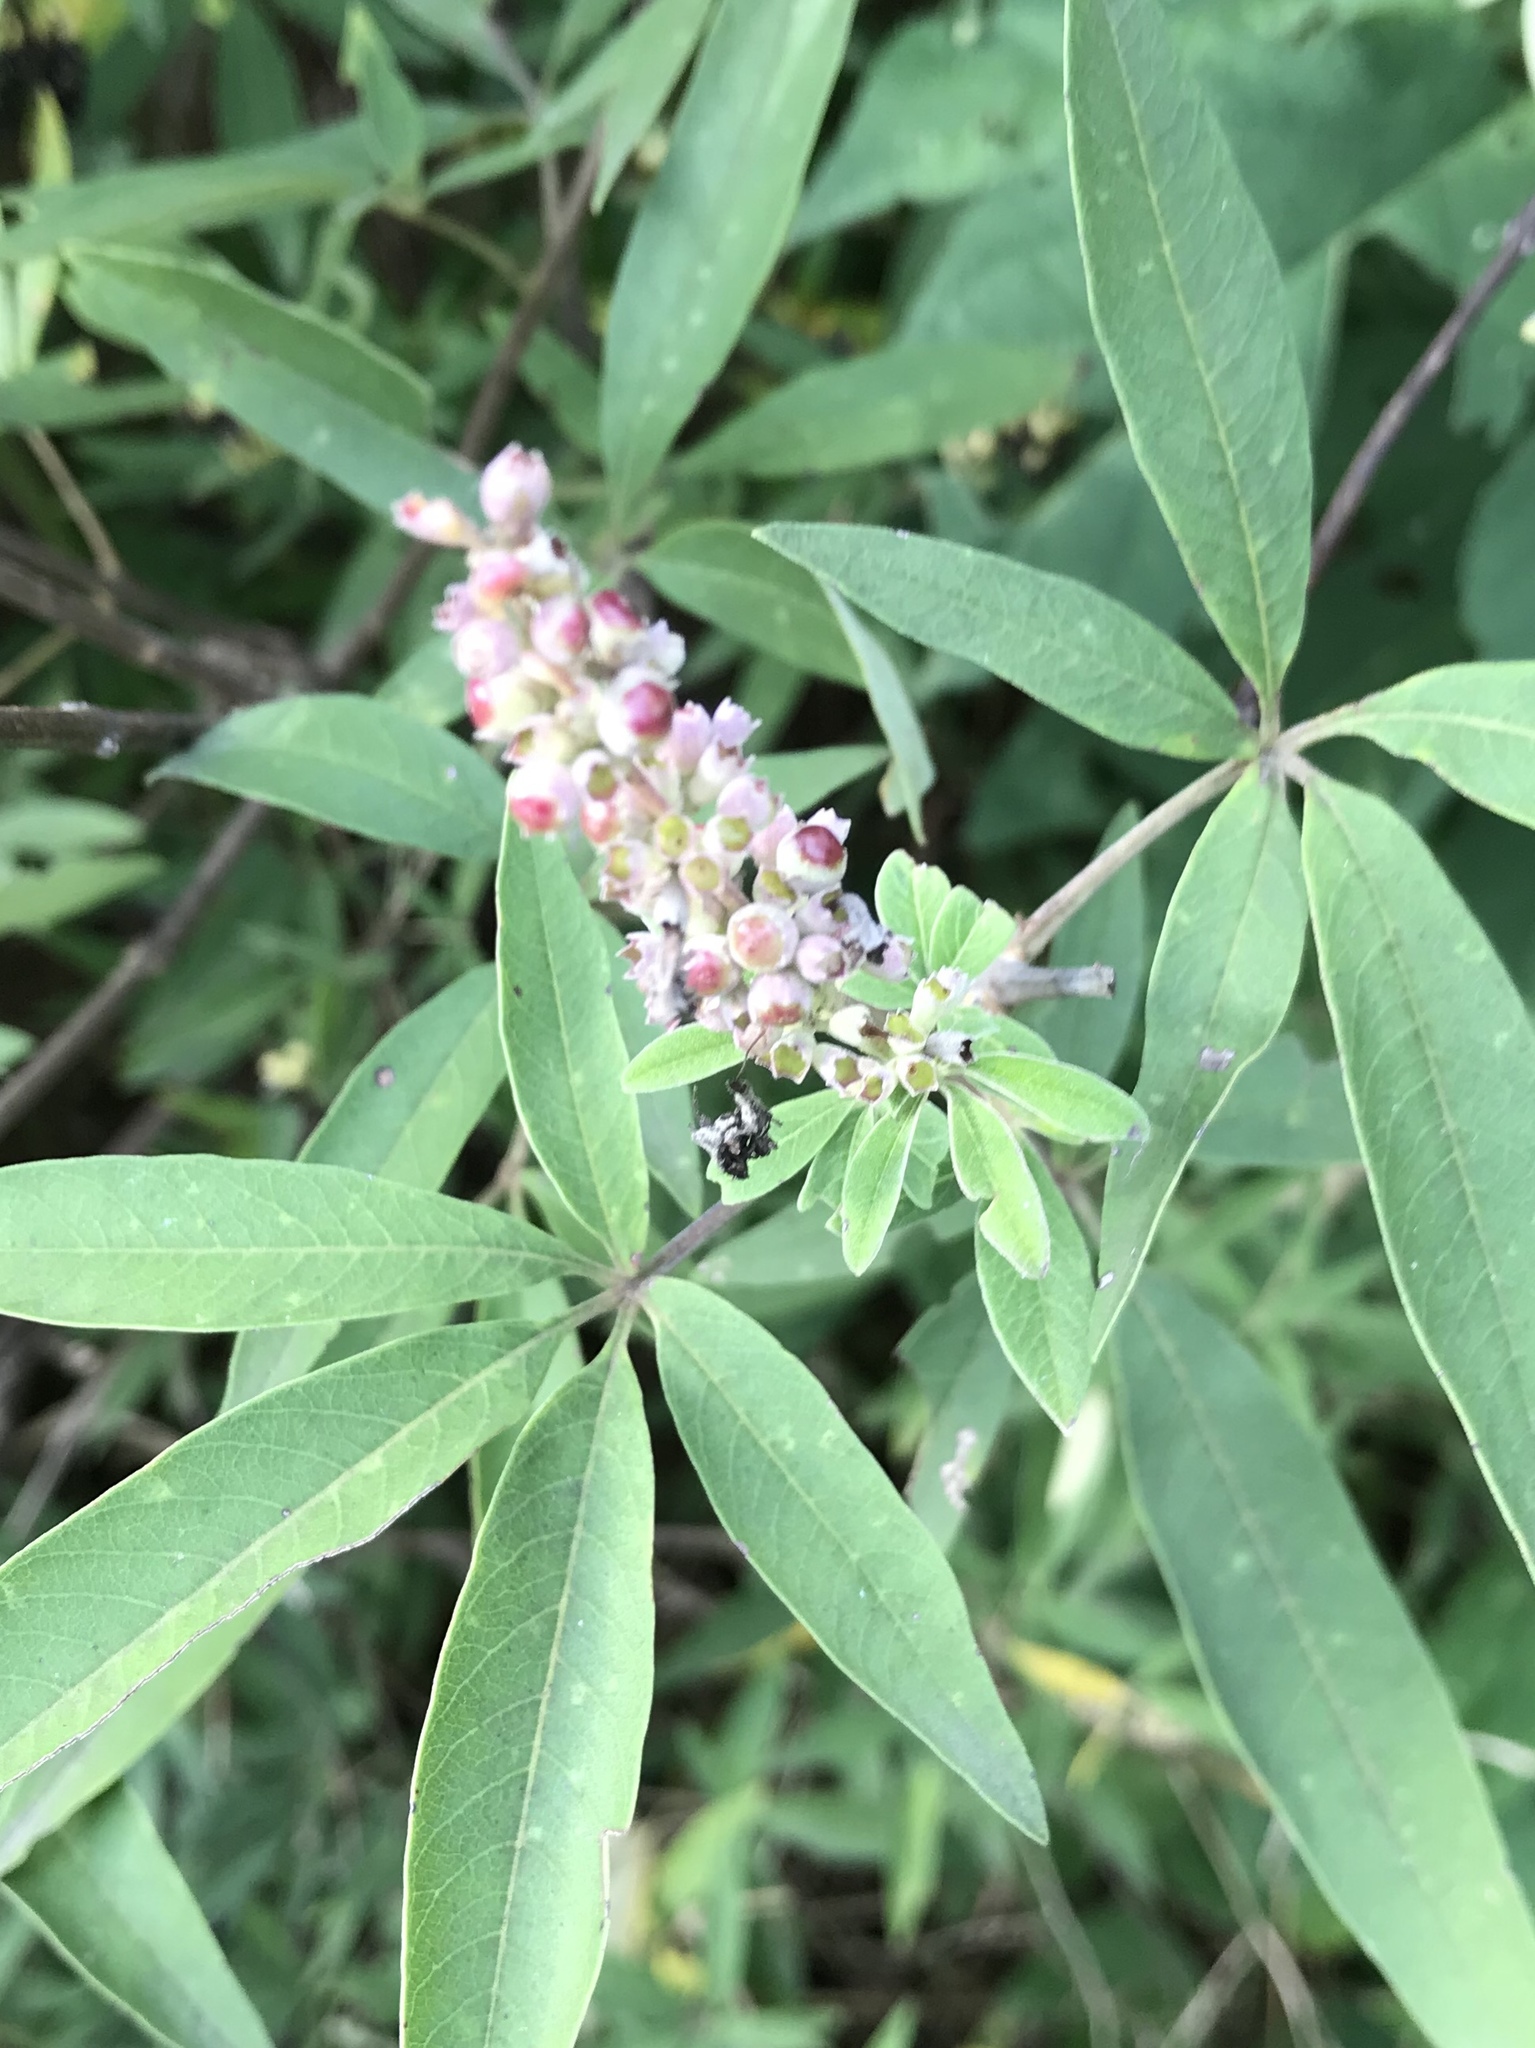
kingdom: Plantae
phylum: Tracheophyta
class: Magnoliopsida
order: Lamiales
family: Lamiaceae
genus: Vitex
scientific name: Vitex agnus-castus
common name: Chasteberry
